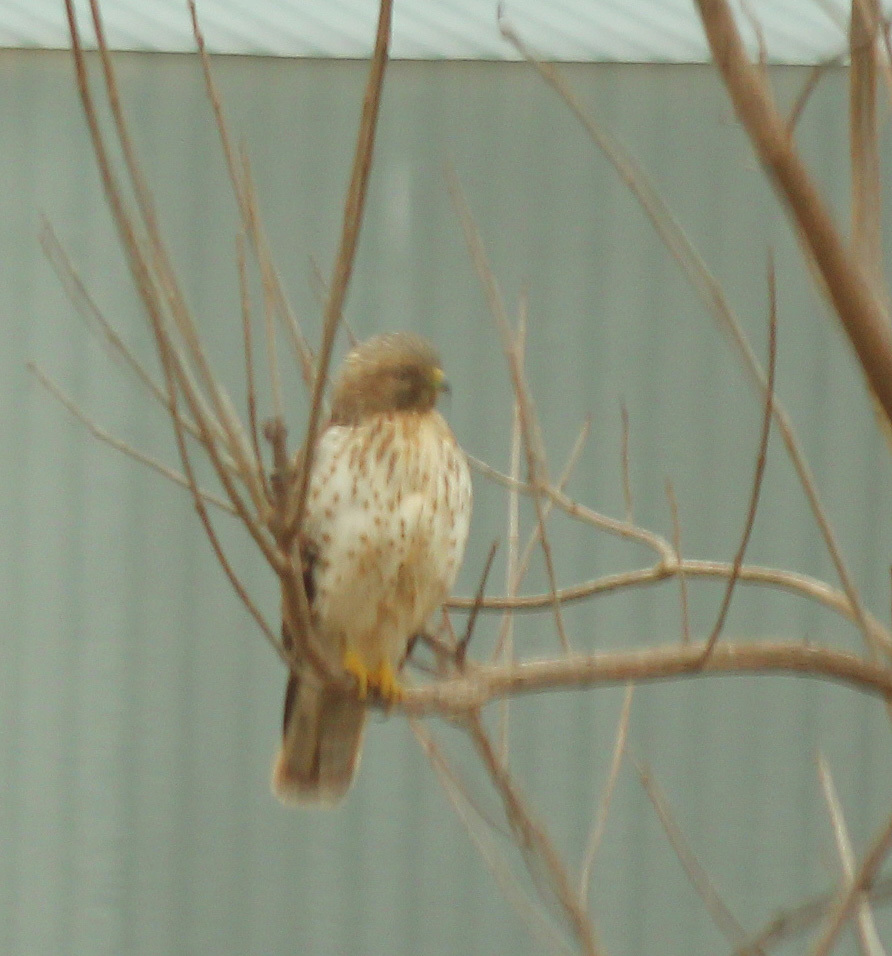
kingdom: Animalia
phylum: Chordata
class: Aves
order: Accipitriformes
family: Accipitridae
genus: Buteo
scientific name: Buteo lineatus
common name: Red-shouldered hawk
